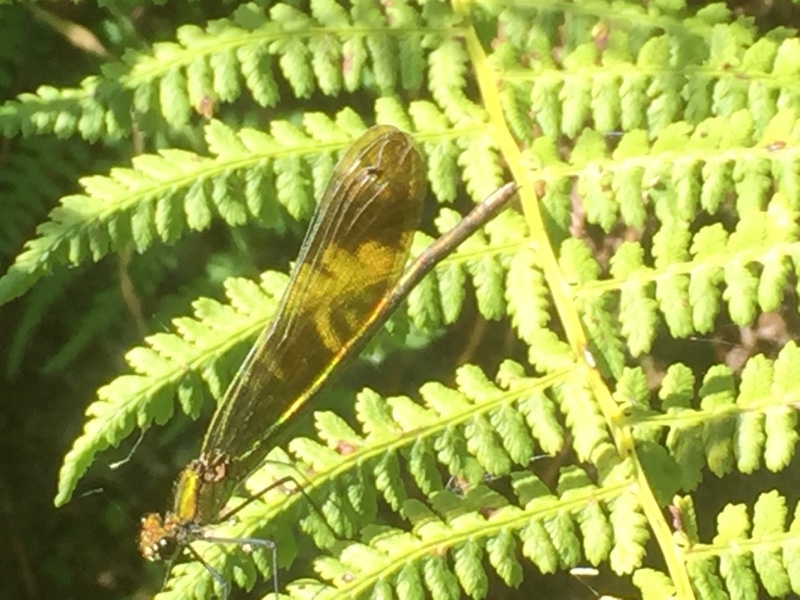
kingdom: Animalia
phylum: Arthropoda
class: Insecta
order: Odonata
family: Calopterygidae
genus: Calopteryx
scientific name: Calopteryx virgo
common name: Beautiful demoiselle
